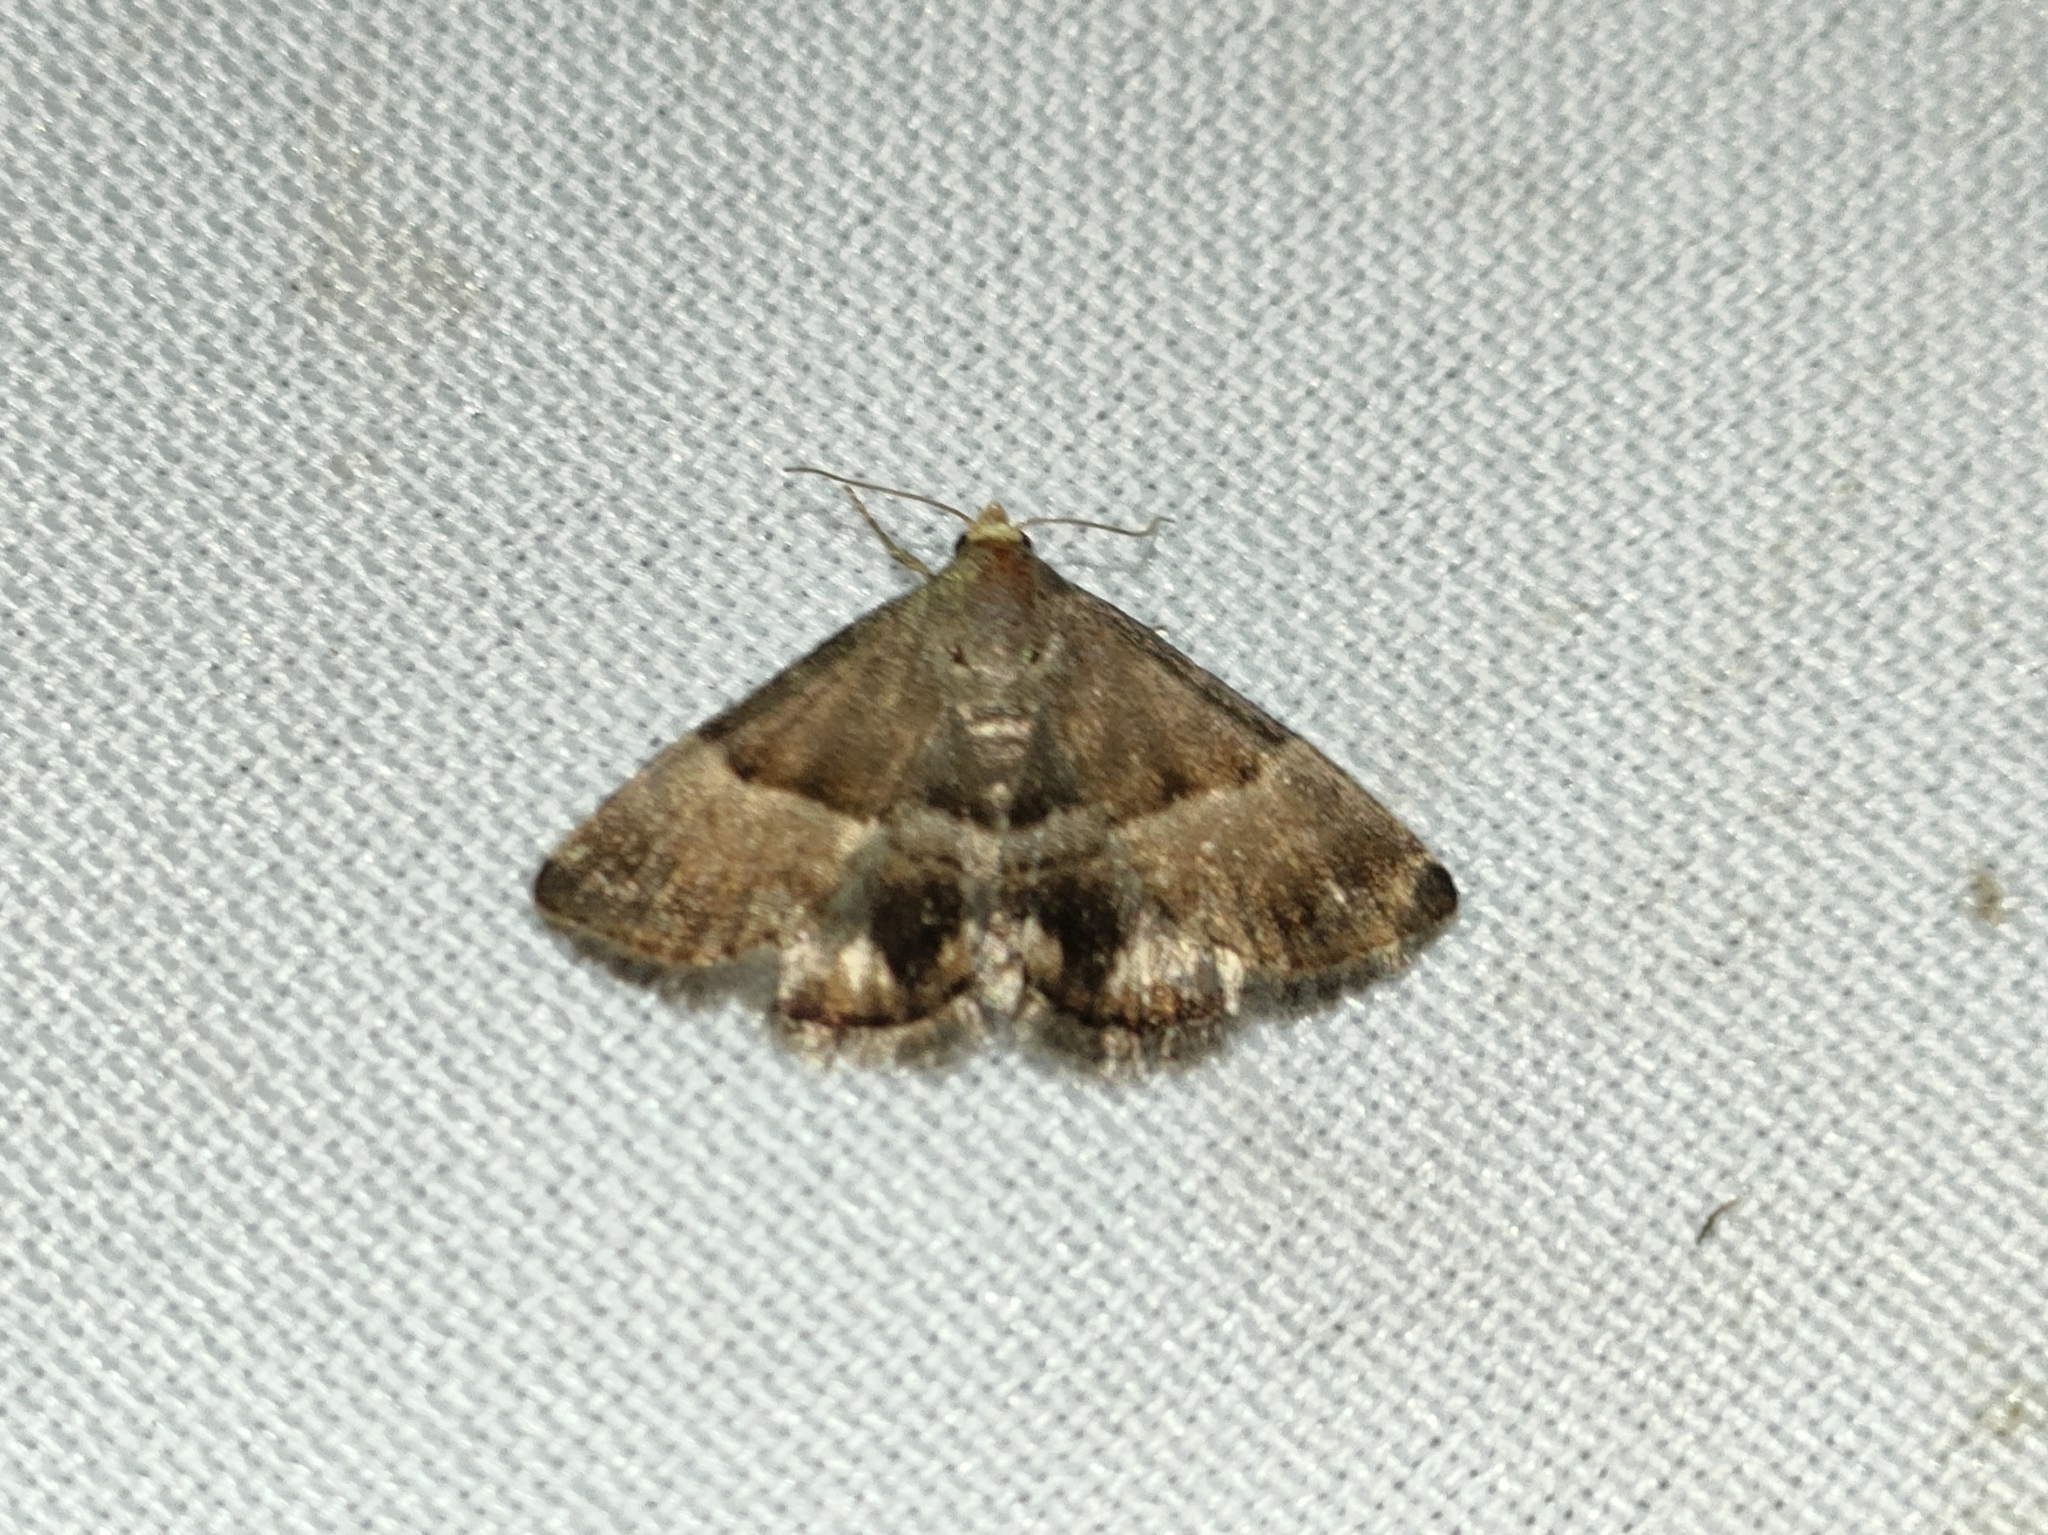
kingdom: Animalia
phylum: Arthropoda
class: Insecta
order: Lepidoptera
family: Noctuidae
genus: Odice
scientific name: Odice jucunda
